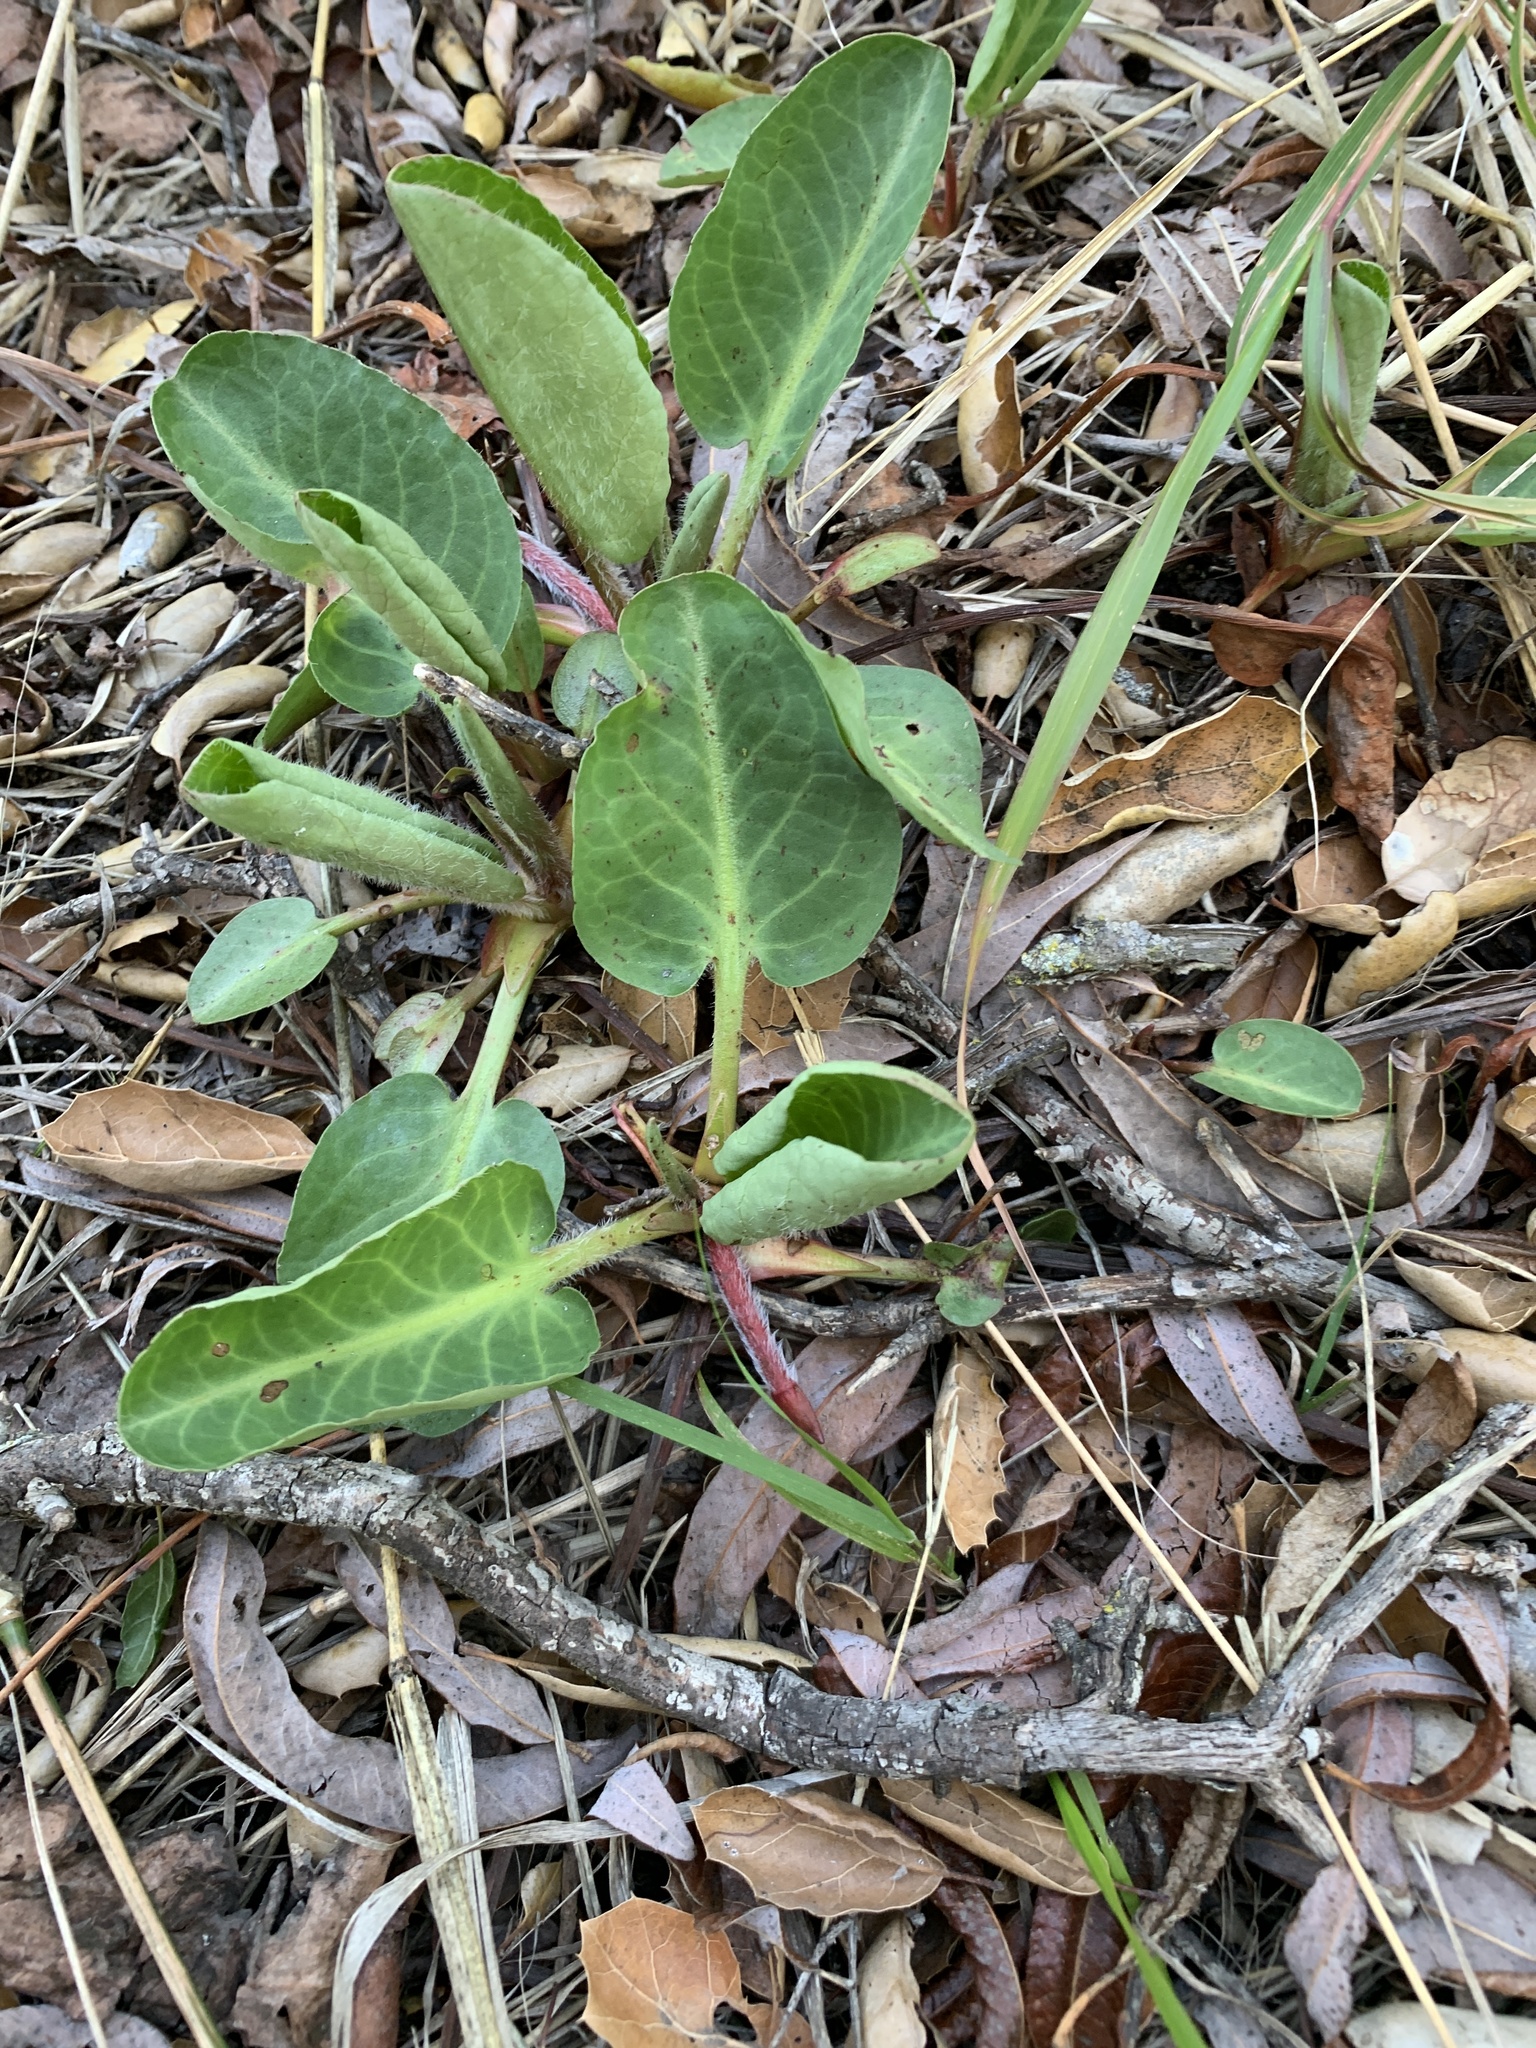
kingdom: Plantae
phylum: Tracheophyta
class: Magnoliopsida
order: Piperales
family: Saururaceae
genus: Anemopsis
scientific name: Anemopsis californica
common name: Apache-beads
